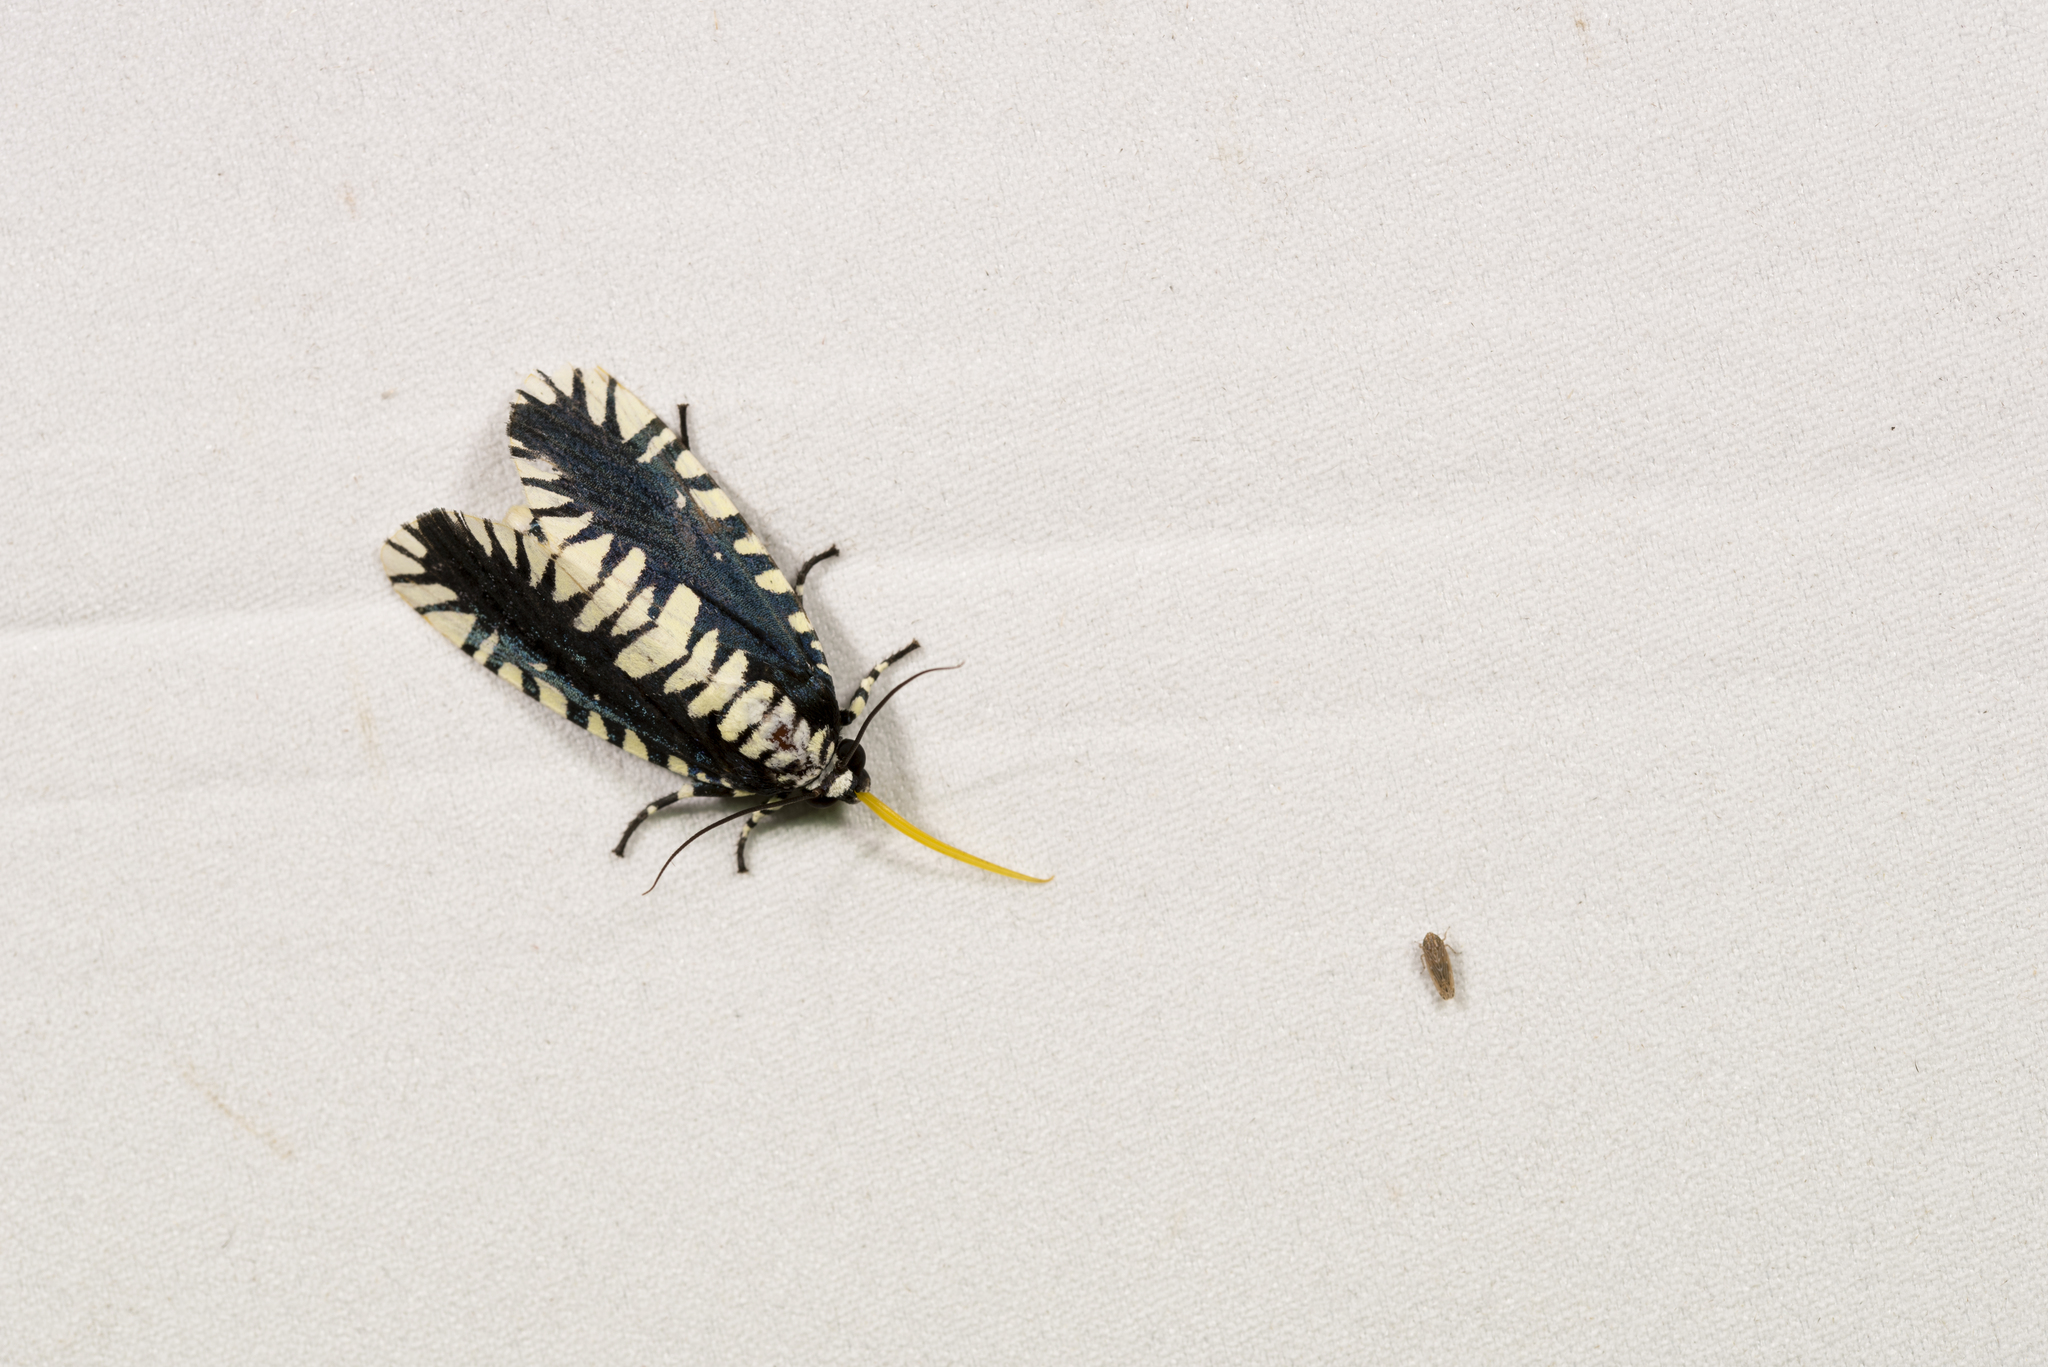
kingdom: Animalia
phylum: Arthropoda
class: Insecta
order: Lepidoptera
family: Noctuidae
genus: Apsarasa
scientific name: Apsarasa radians
